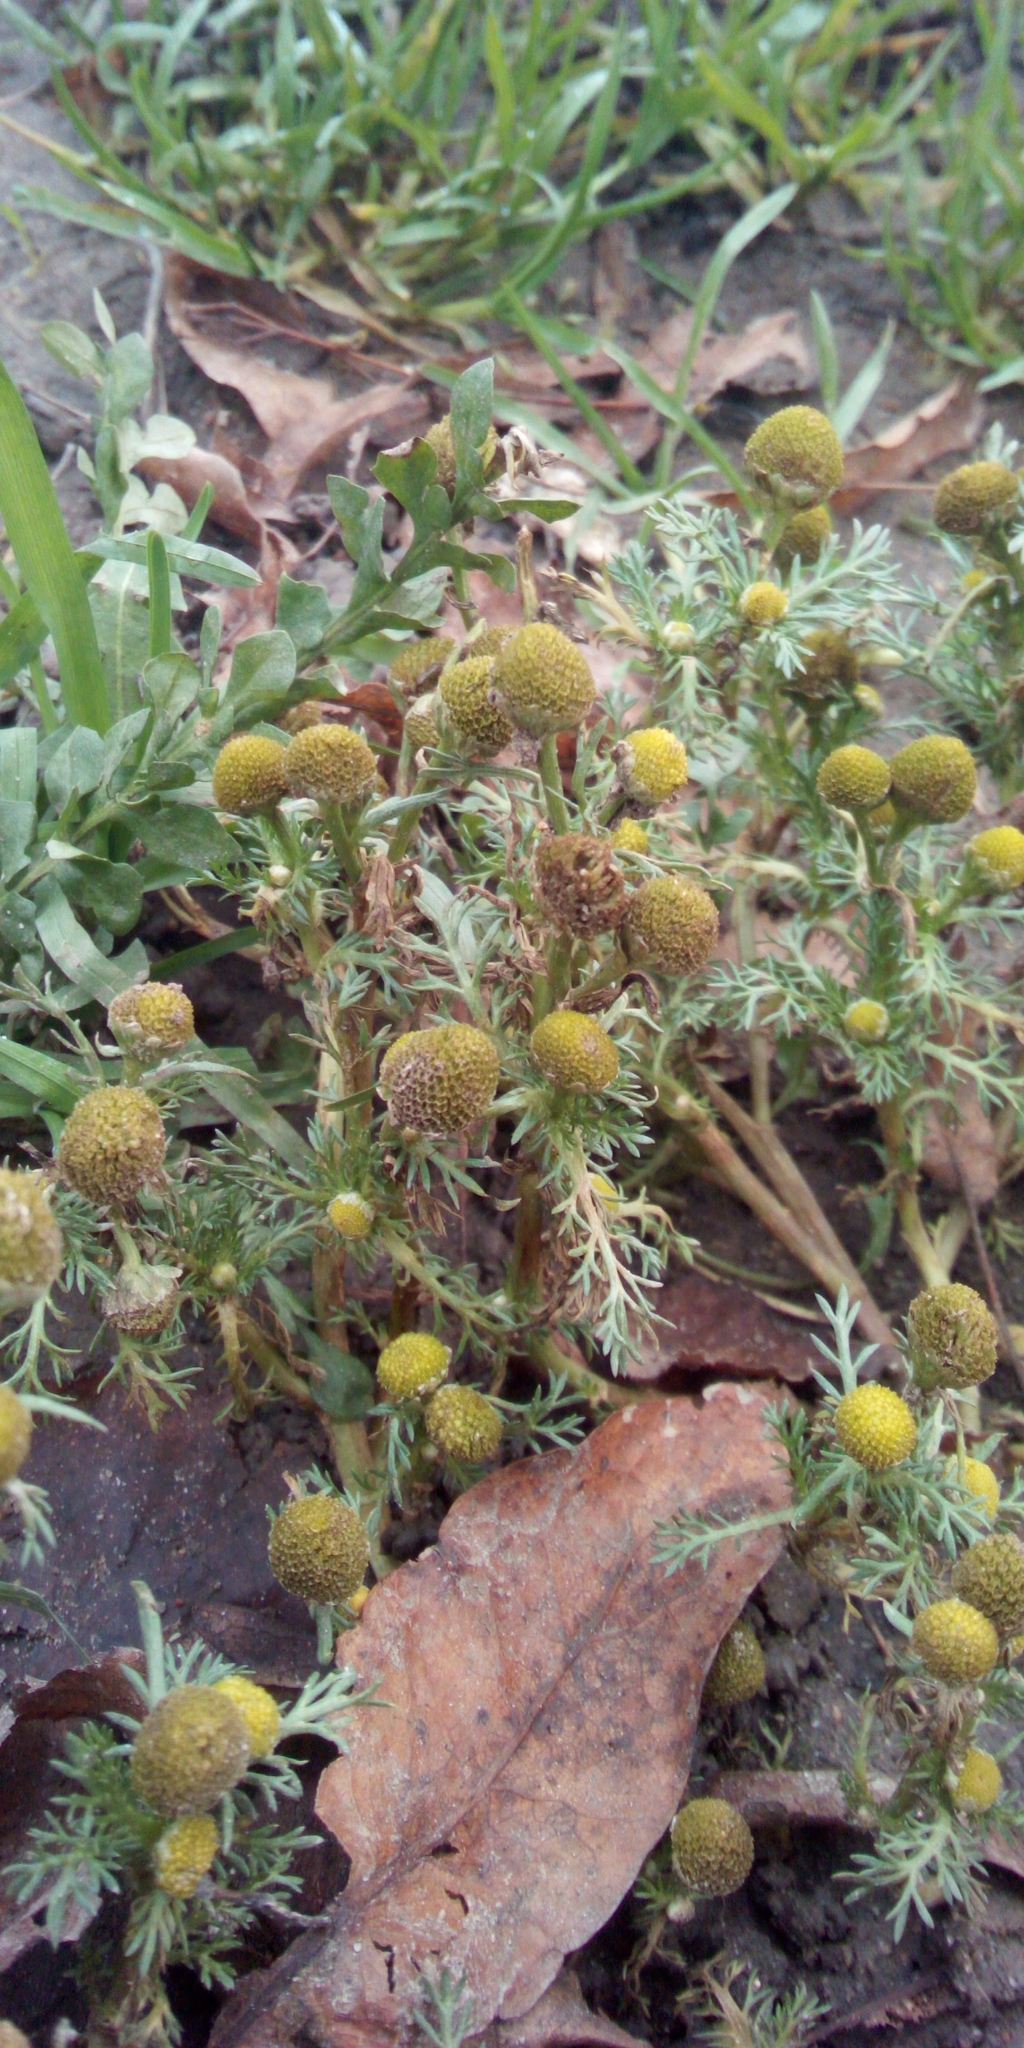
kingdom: Plantae
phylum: Tracheophyta
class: Magnoliopsida
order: Asterales
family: Asteraceae
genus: Matricaria
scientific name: Matricaria discoidea
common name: Disc mayweed
